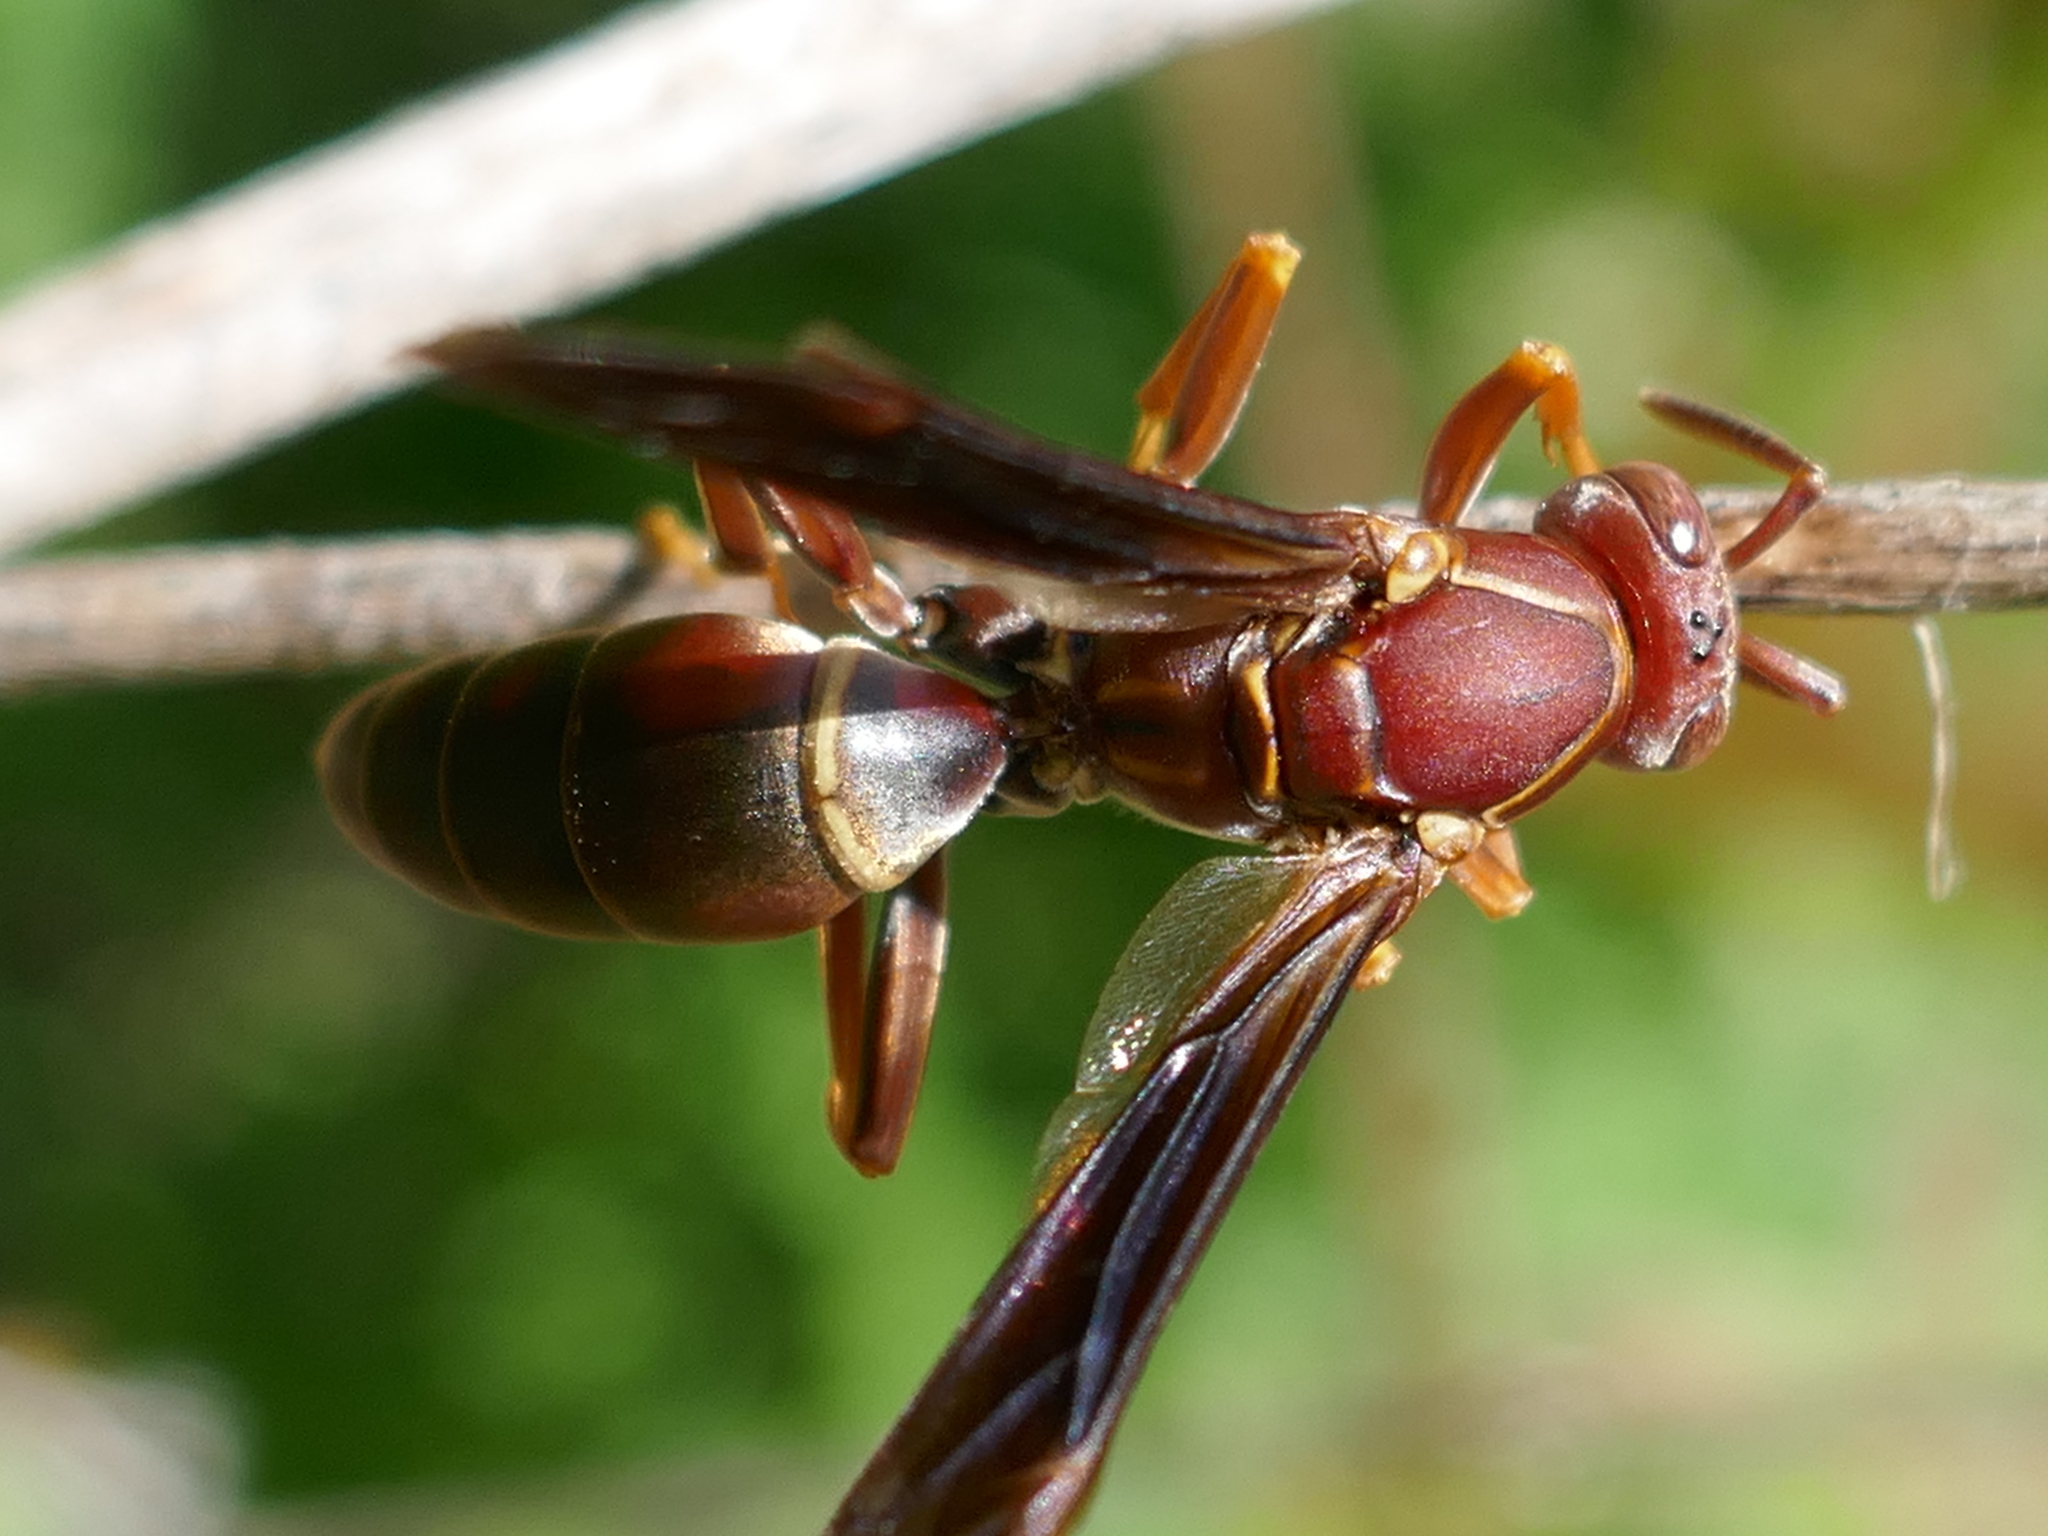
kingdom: Animalia
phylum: Arthropoda
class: Insecta
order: Hymenoptera
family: Vespidae
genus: Fuscopolistes
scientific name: Fuscopolistes
